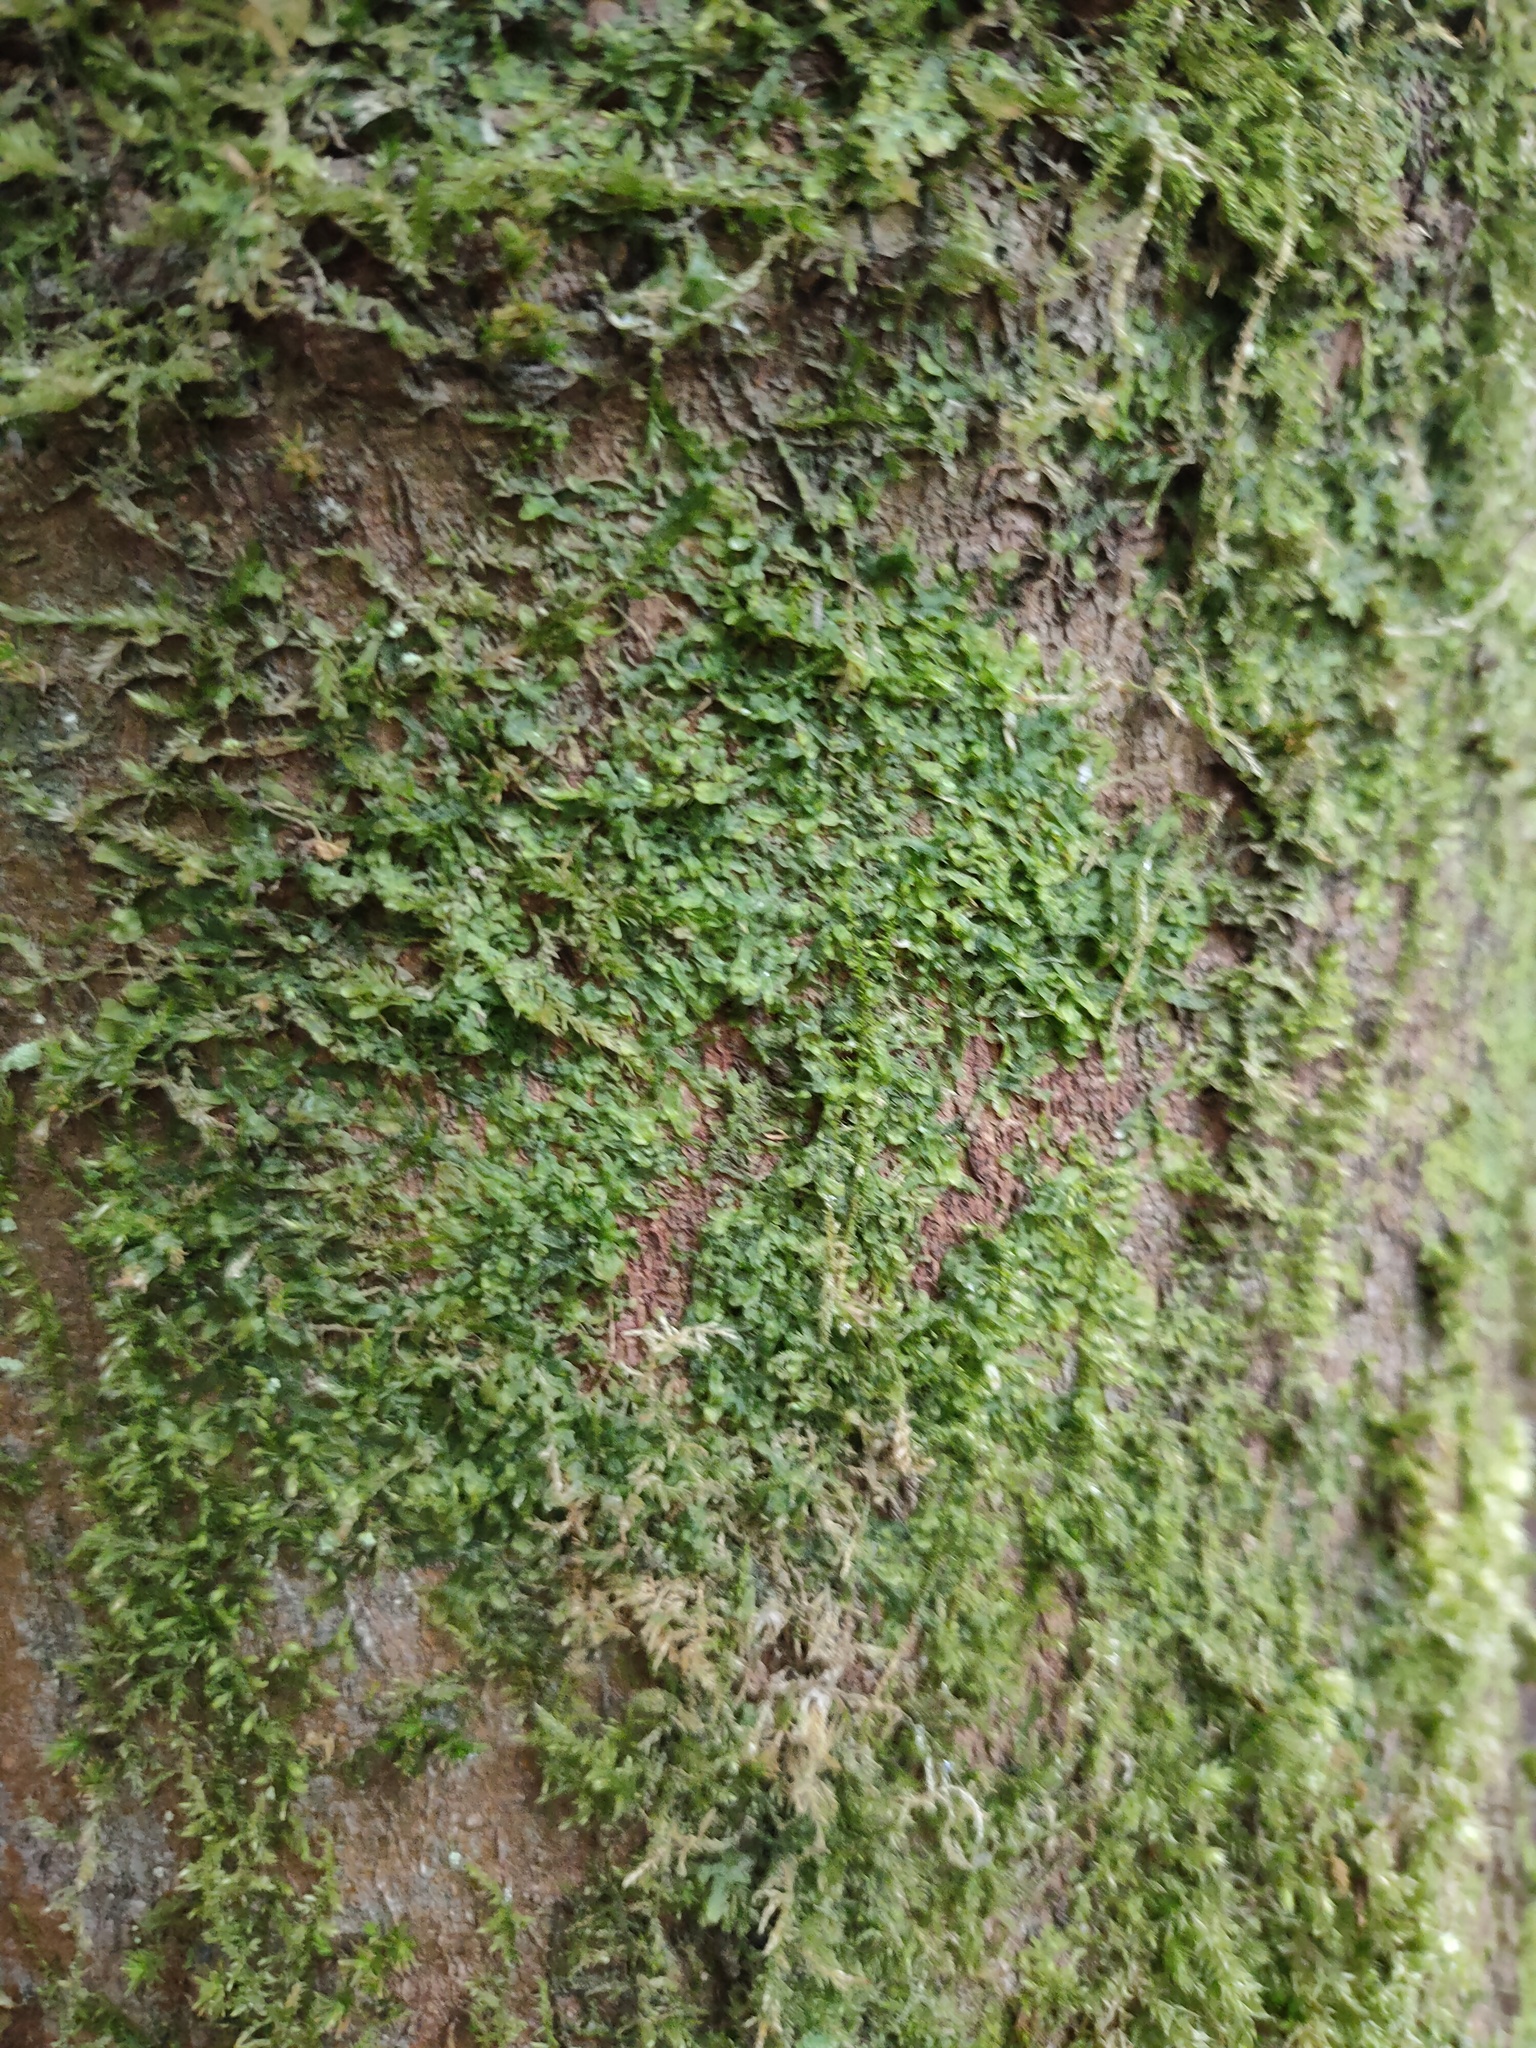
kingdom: Plantae
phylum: Marchantiophyta
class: Jungermanniopsida
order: Metzgeriales
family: Metzgeriaceae
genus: Metzgeria
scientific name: Metzgeria furcata
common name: Forked veilwort
